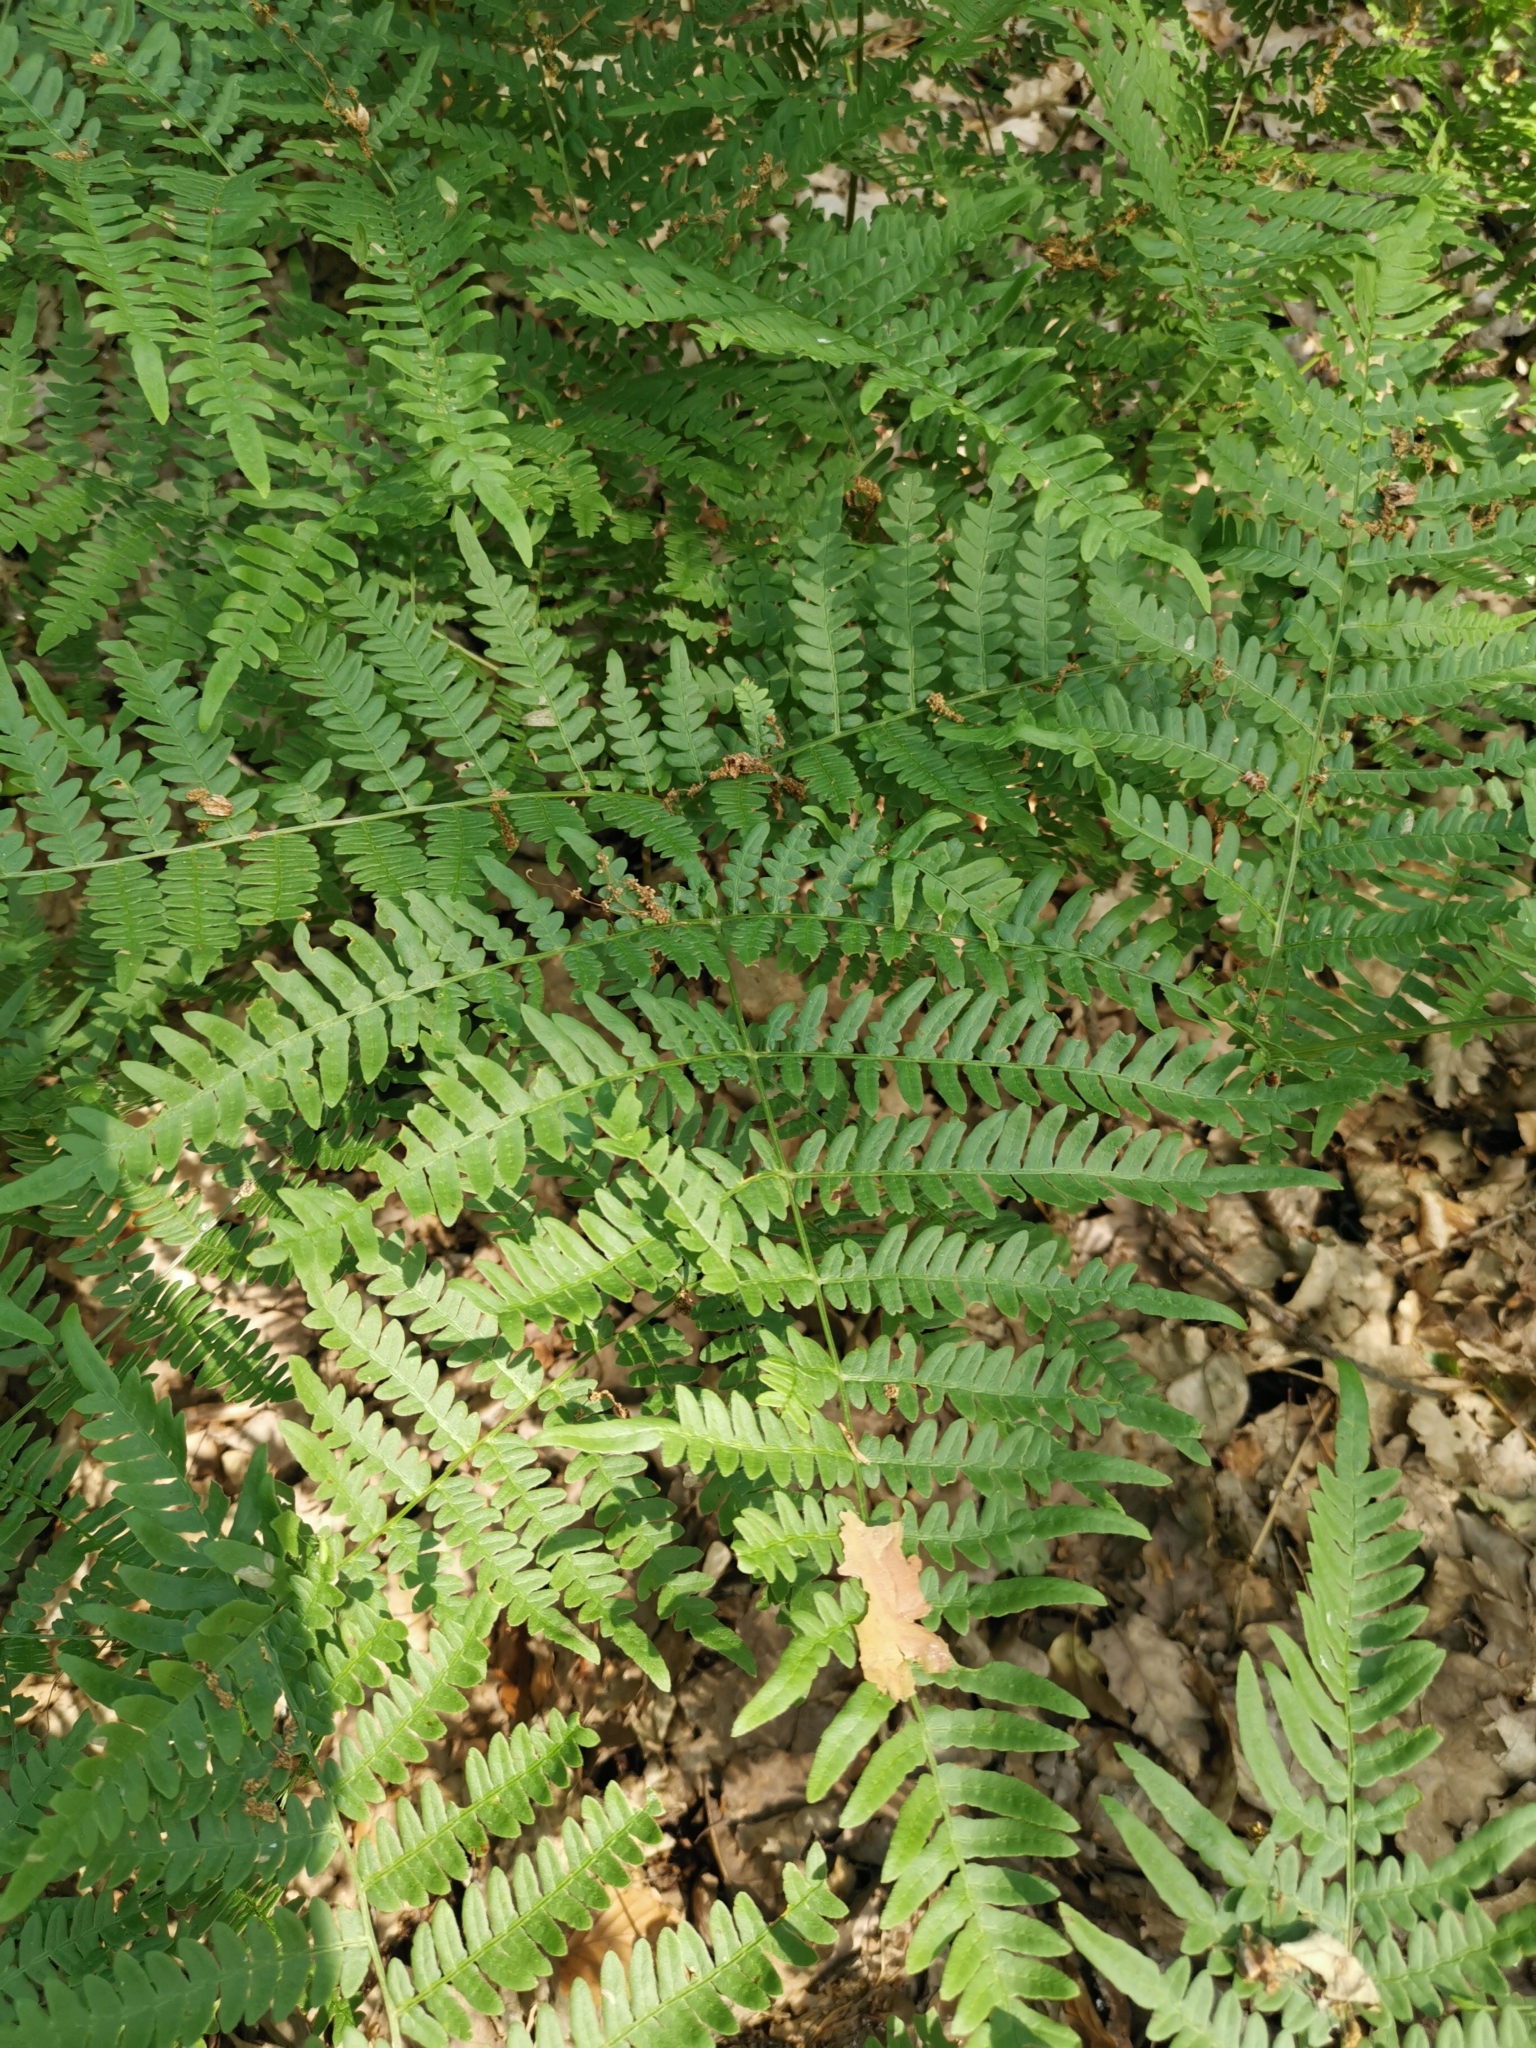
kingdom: Plantae
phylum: Tracheophyta
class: Polypodiopsida
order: Polypodiales
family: Dennstaedtiaceae
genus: Pteridium
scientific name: Pteridium aquilinum
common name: Bracken
